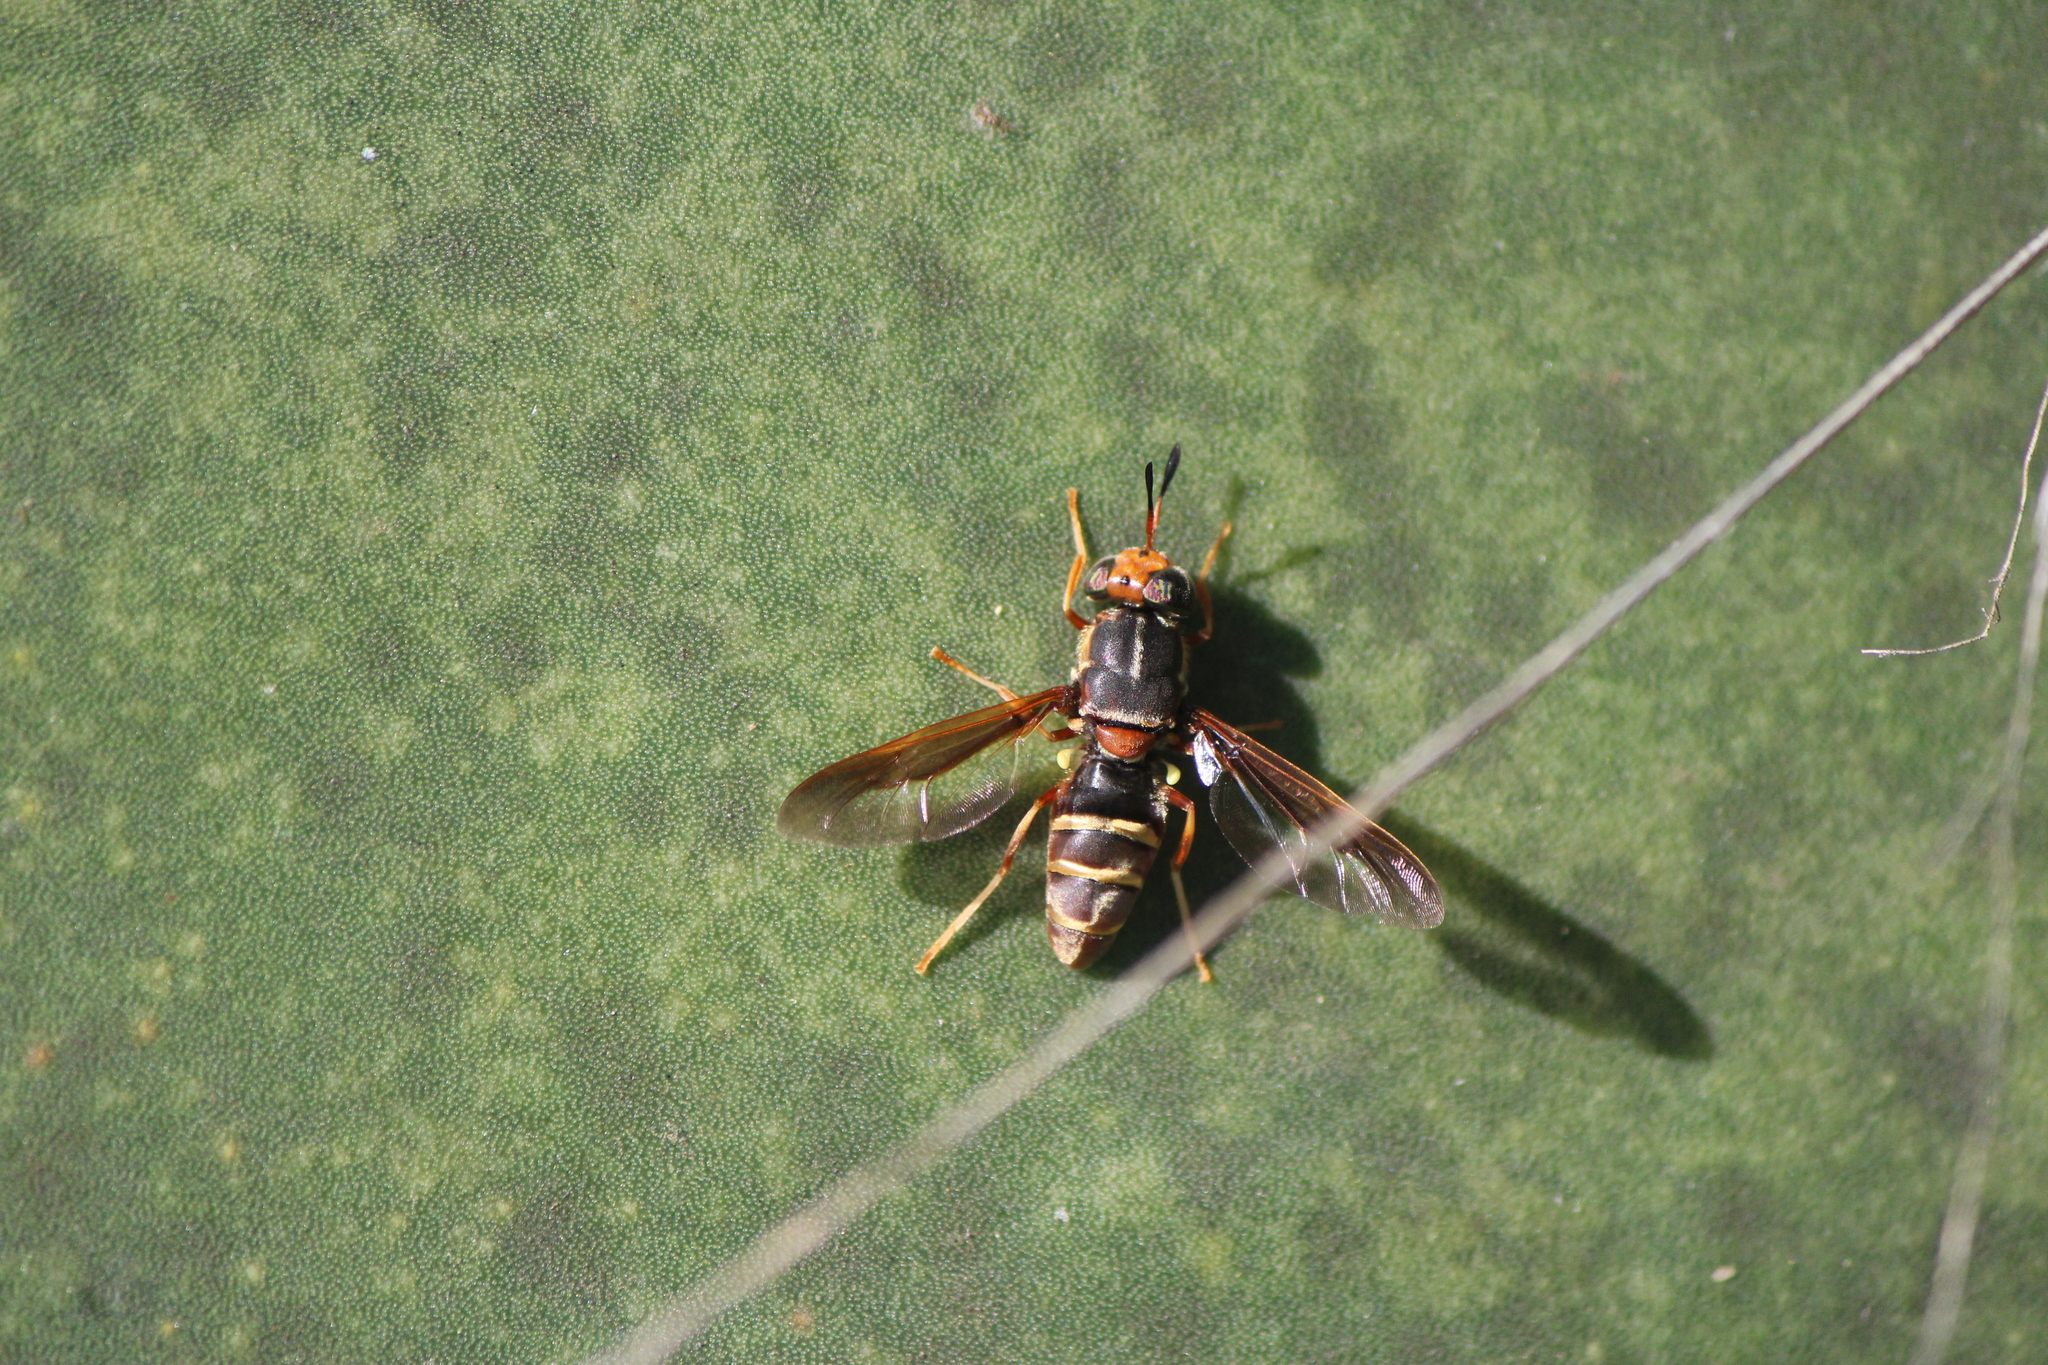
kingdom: Animalia
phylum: Arthropoda
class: Insecta
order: Diptera
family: Stratiomyidae
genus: Hermetia
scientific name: Hermetia comstocki
